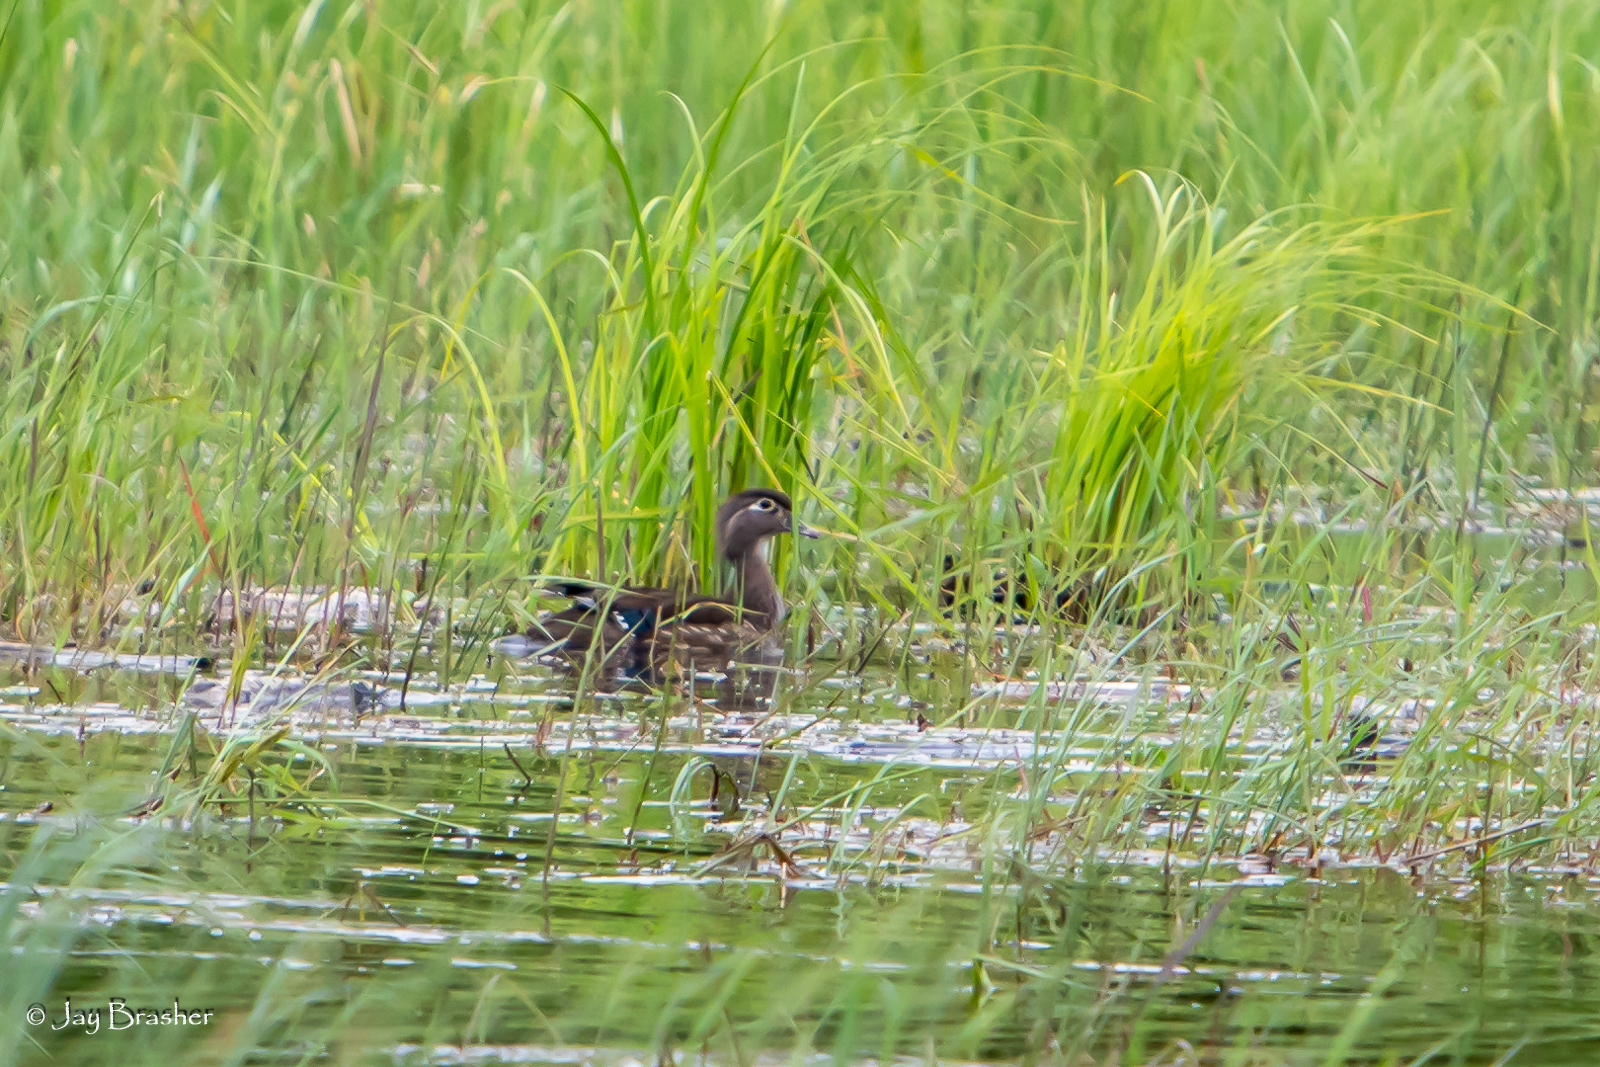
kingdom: Animalia
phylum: Chordata
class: Aves
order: Anseriformes
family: Anatidae
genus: Aix
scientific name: Aix sponsa
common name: Wood duck
